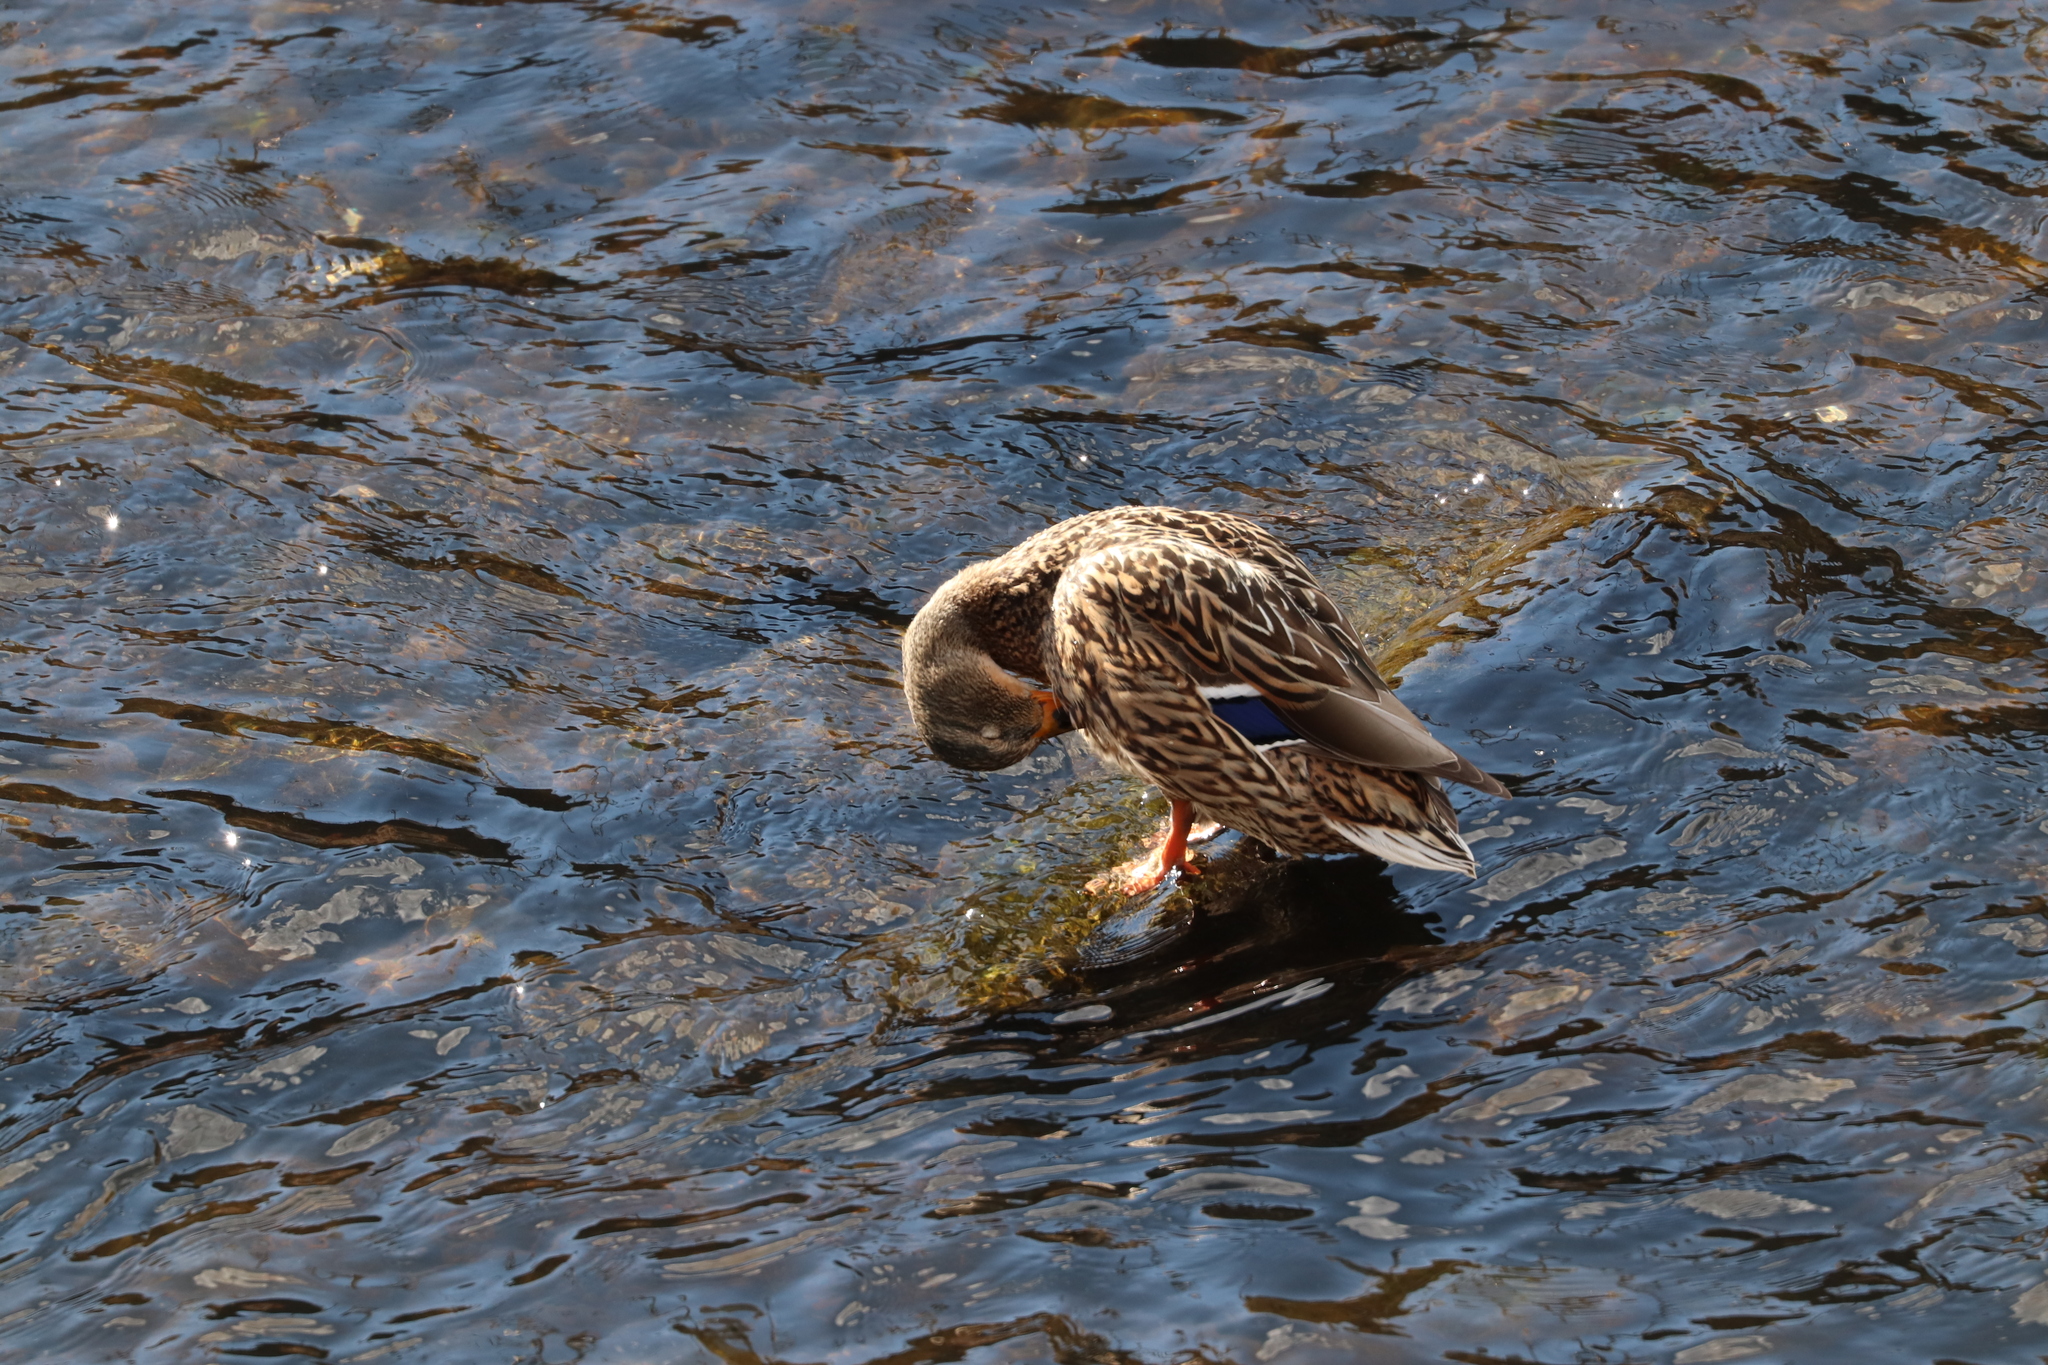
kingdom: Animalia
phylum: Chordata
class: Aves
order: Anseriformes
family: Anatidae
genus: Anas
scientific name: Anas platyrhynchos
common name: Mallard
